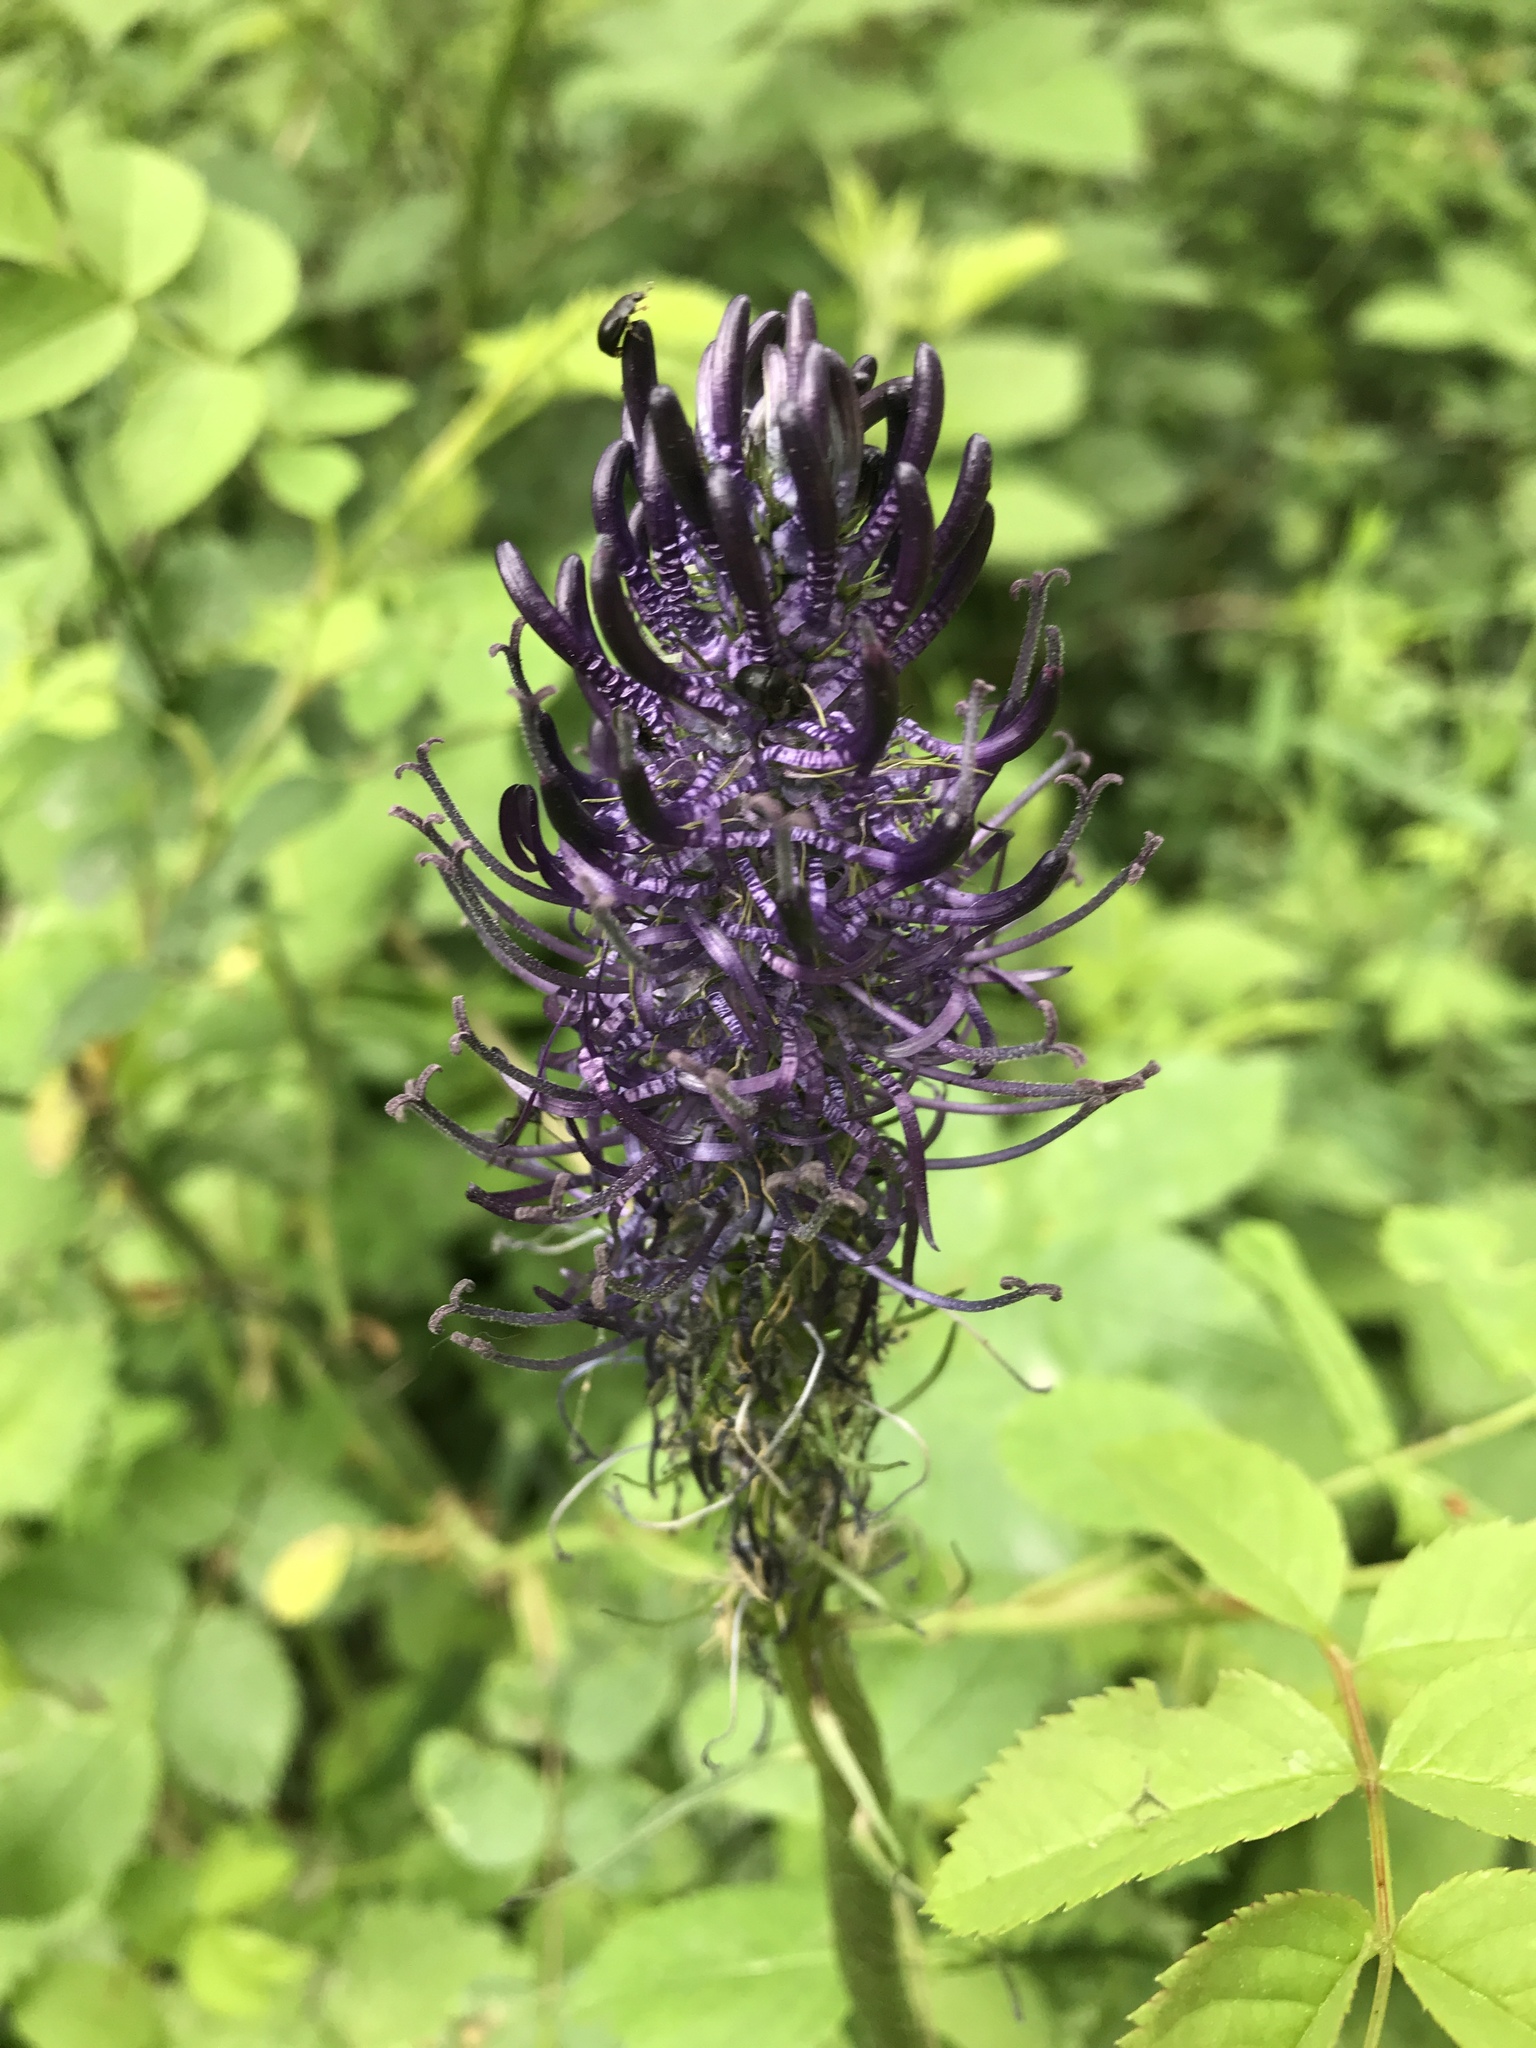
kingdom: Plantae
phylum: Tracheophyta
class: Magnoliopsida
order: Asterales
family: Campanulaceae
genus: Phyteuma
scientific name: Phyteuma nigrum
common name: Black rampion
